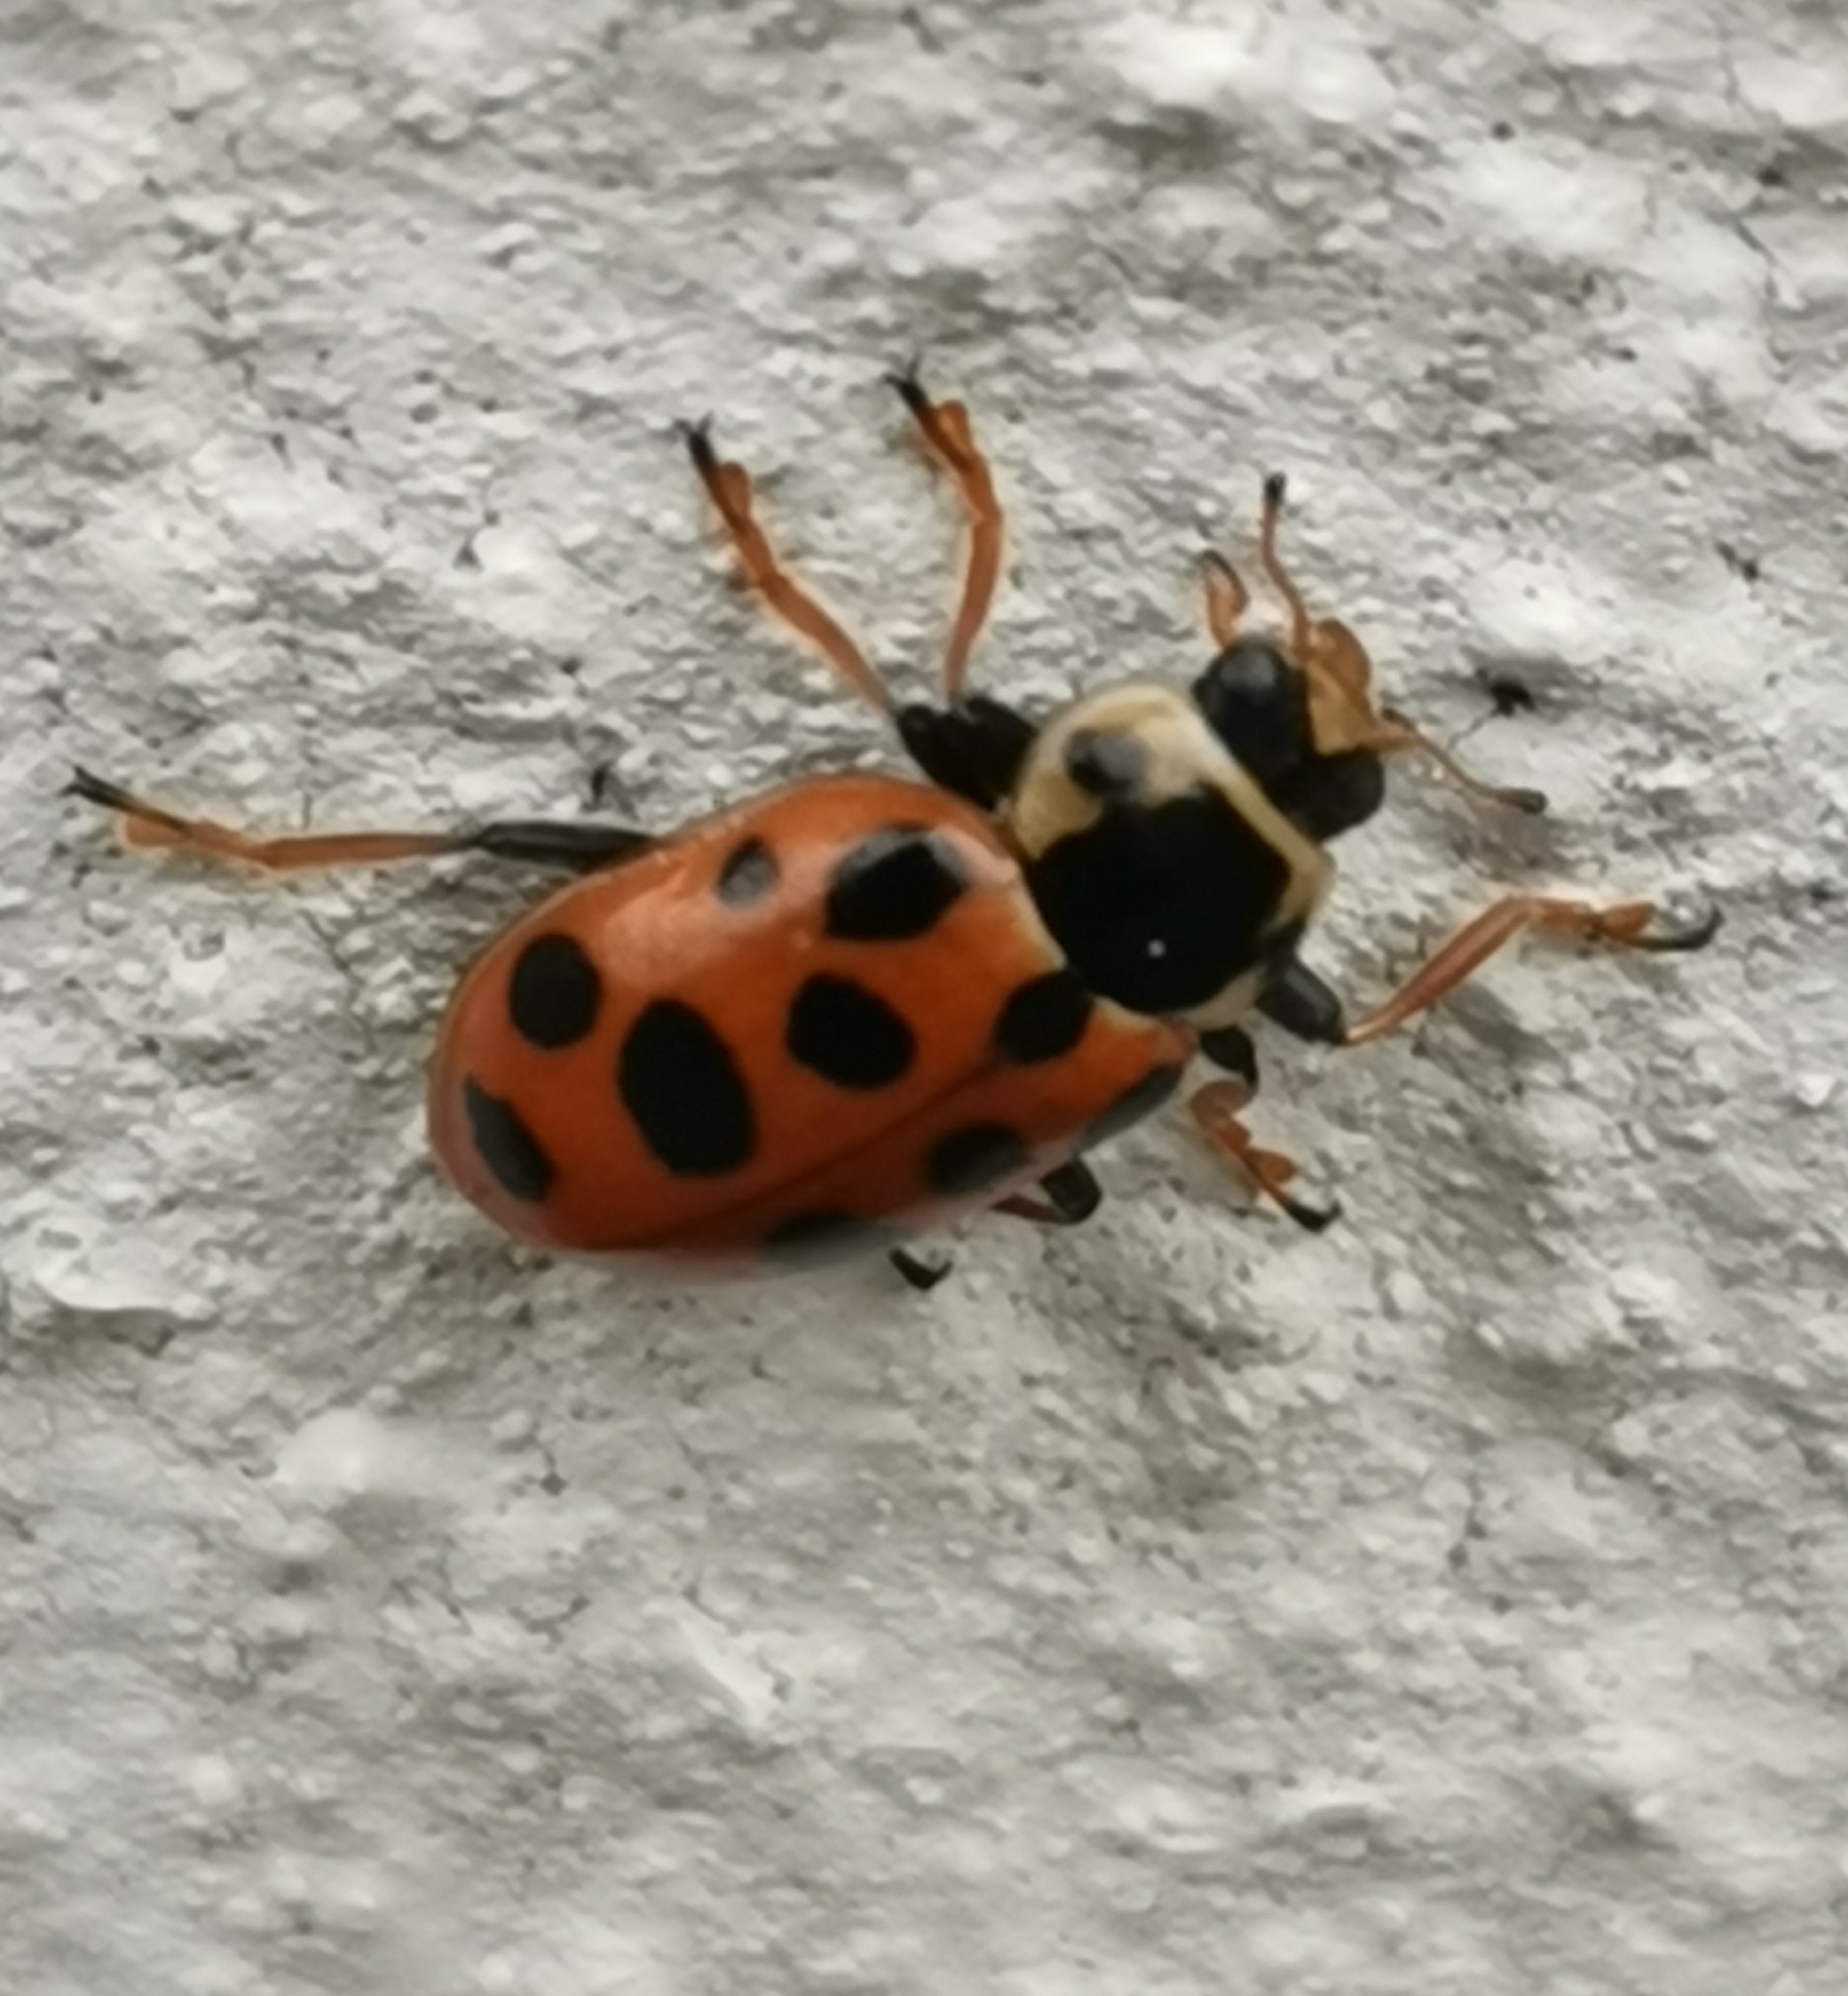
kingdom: Animalia
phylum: Arthropoda
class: Insecta
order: Coleoptera
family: Coccinellidae
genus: Hippodamia
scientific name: Hippodamia tredecimpunctata
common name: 13-spot ladybird
